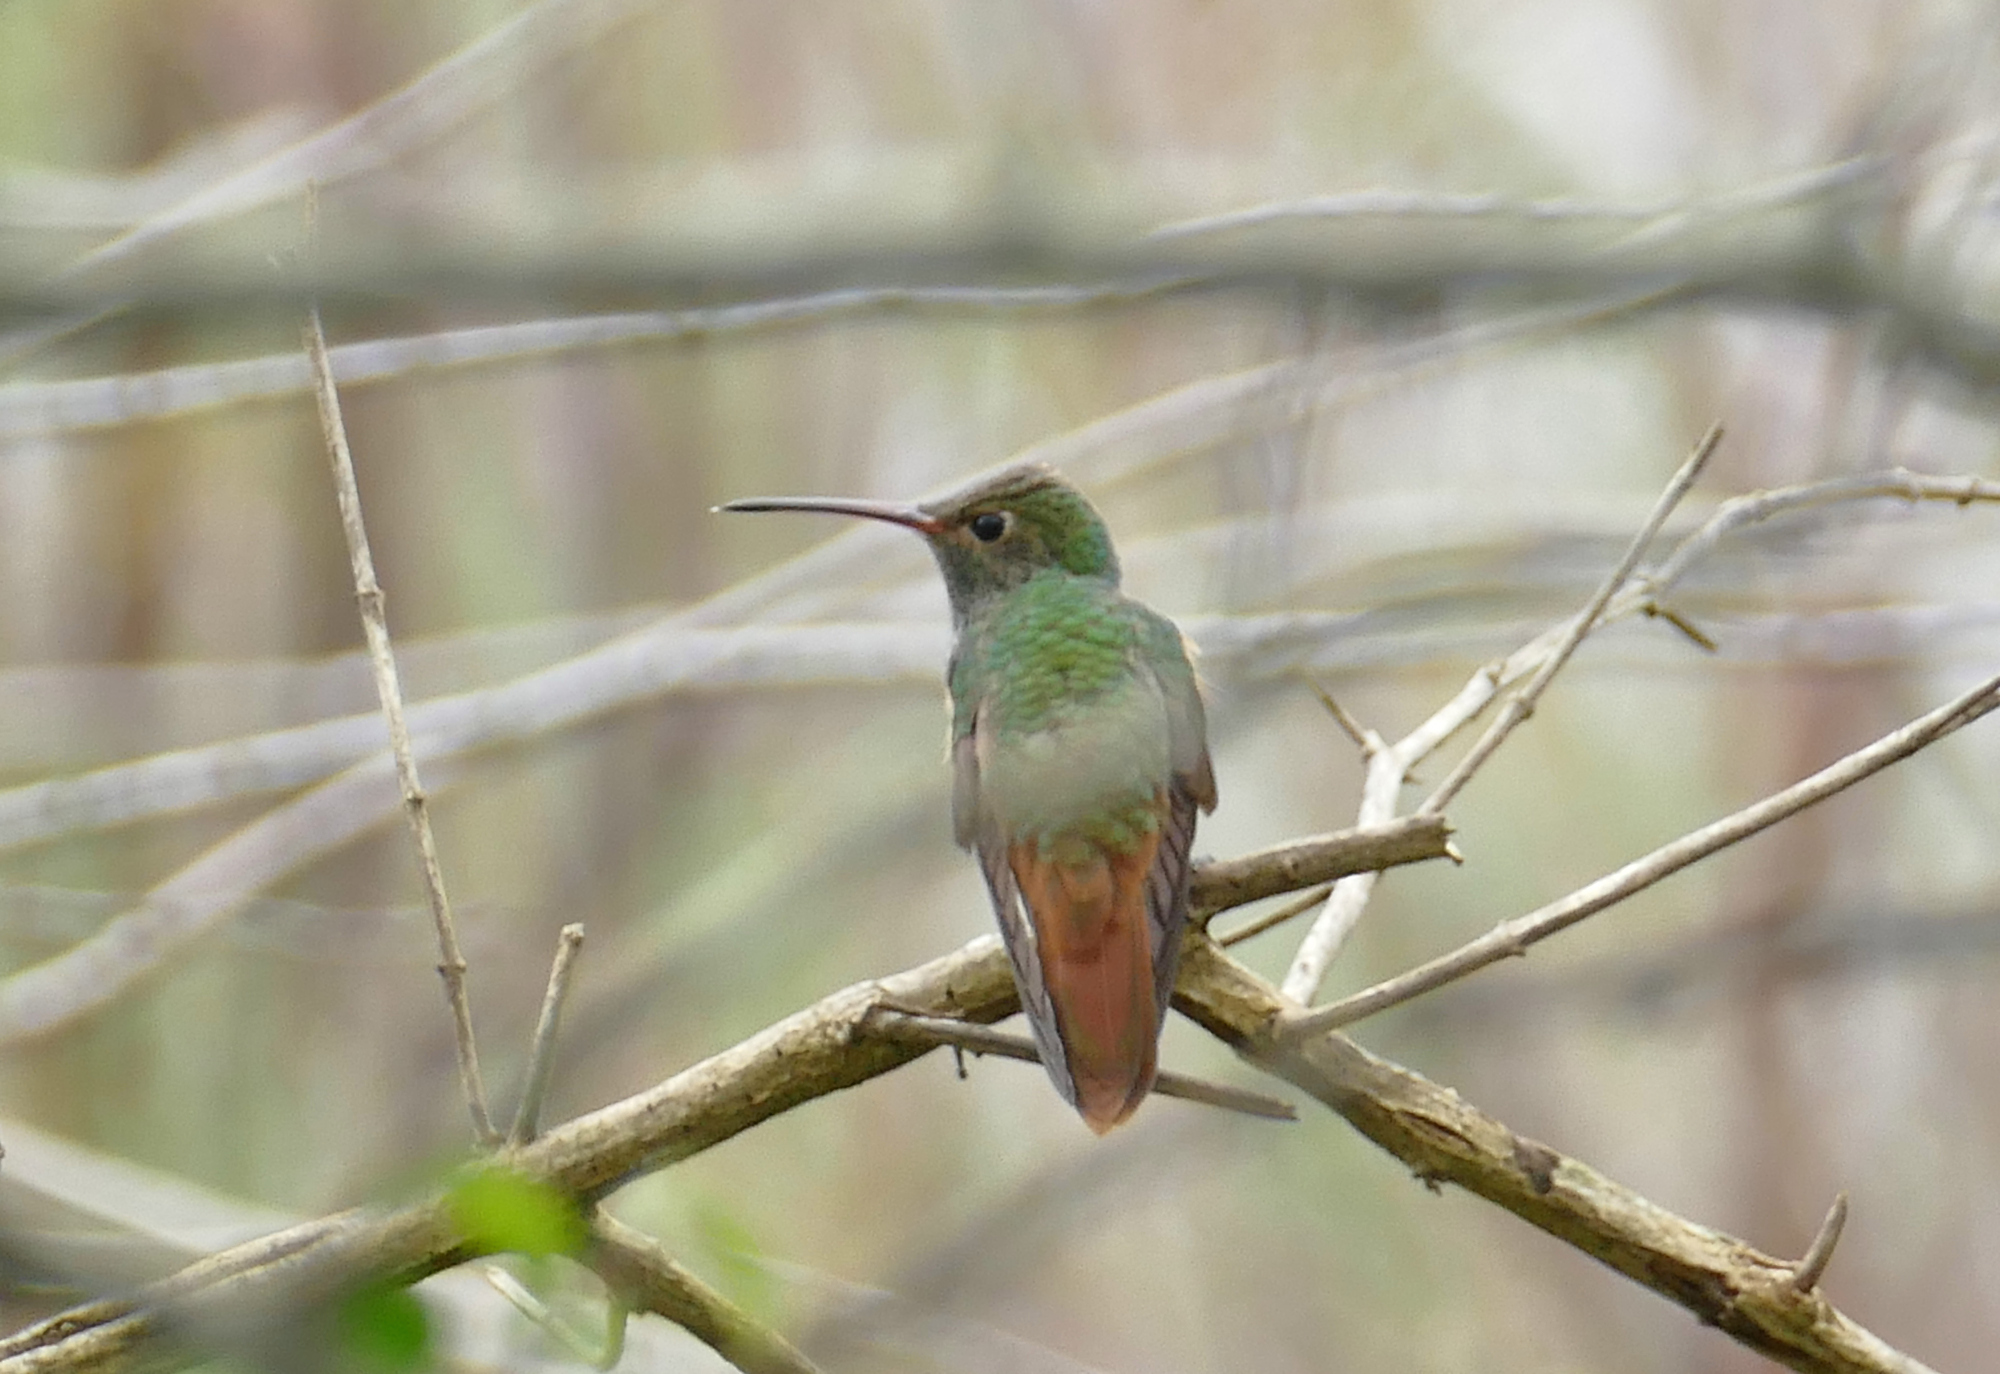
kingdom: Animalia
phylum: Chordata
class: Aves
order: Apodiformes
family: Trochilidae
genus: Amazilia
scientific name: Amazilia yucatanensis
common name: Buff-bellied hummingbird
